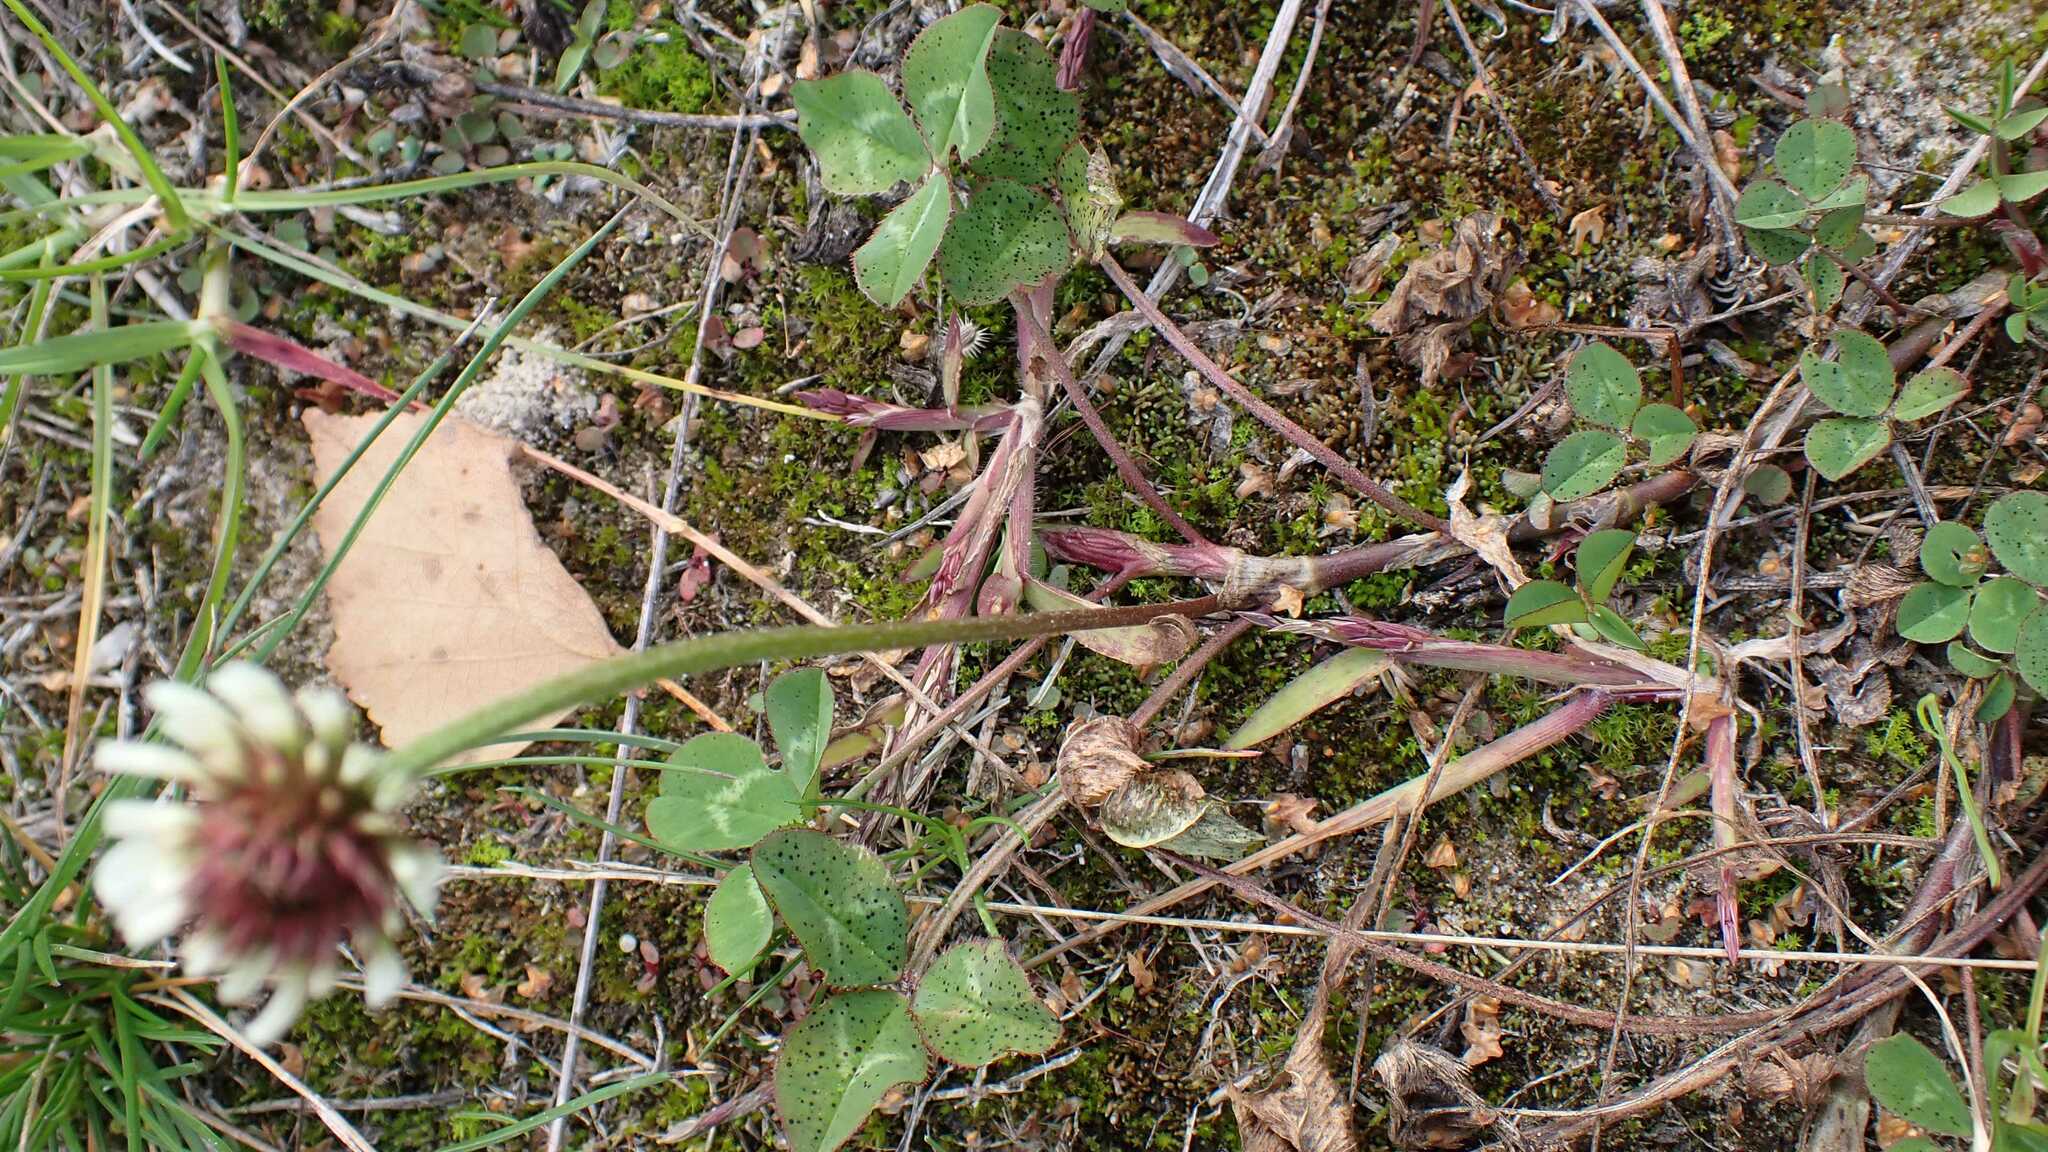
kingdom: Plantae
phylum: Tracheophyta
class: Magnoliopsida
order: Fabales
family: Fabaceae
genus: Trifolium
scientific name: Trifolium repens
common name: White clover
